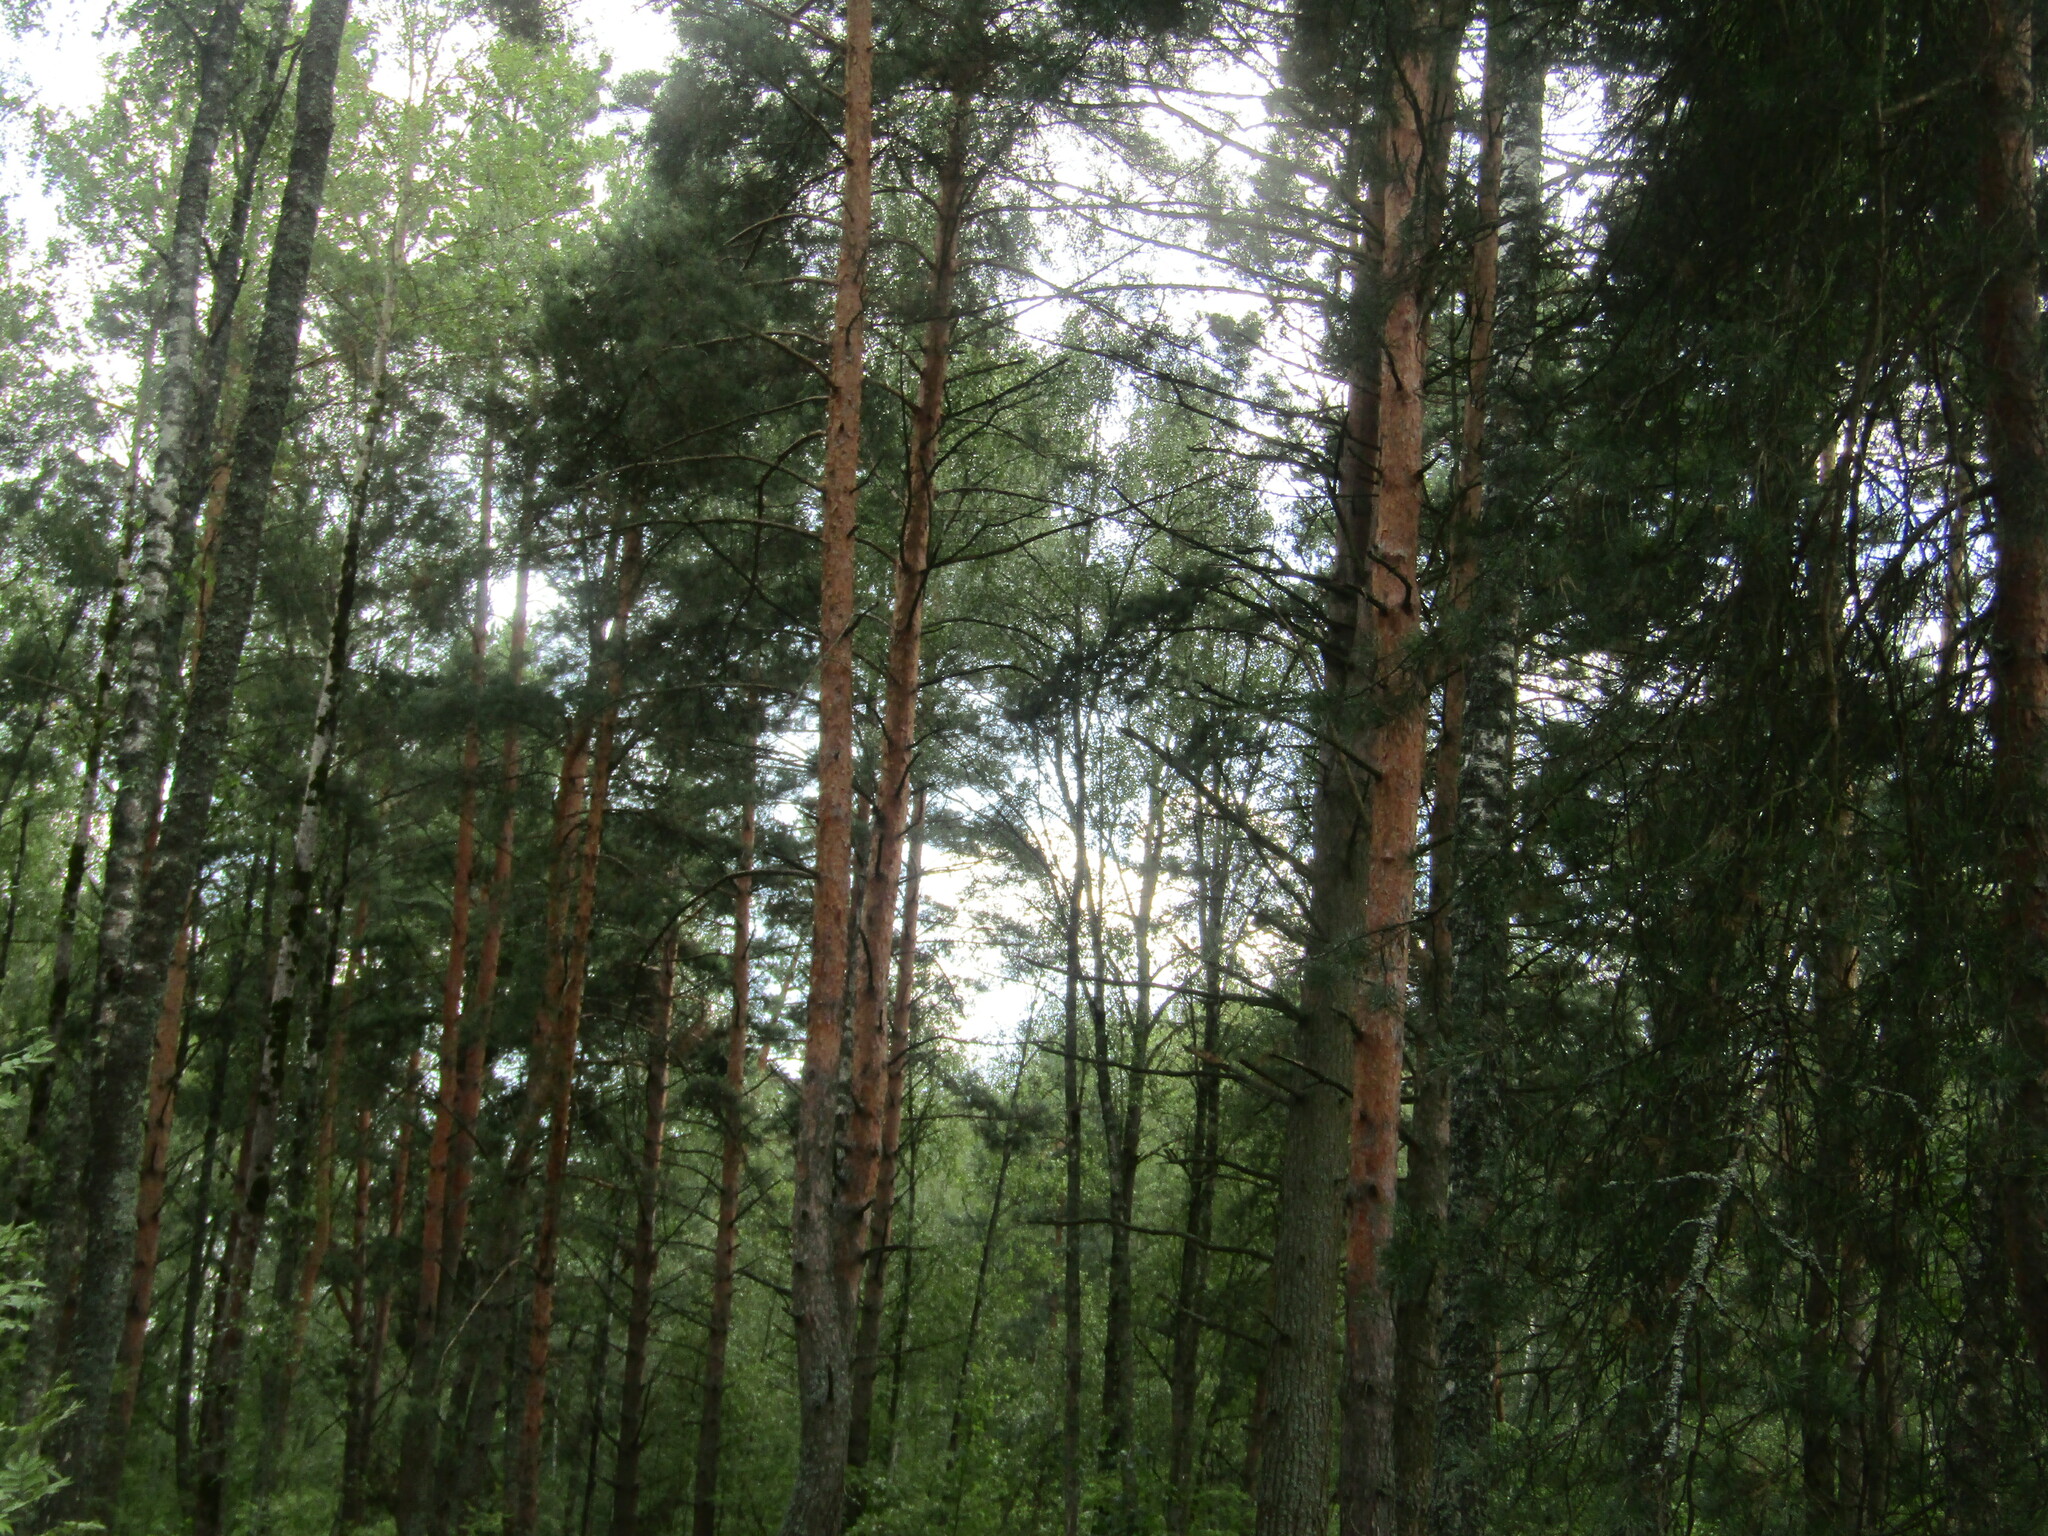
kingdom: Plantae
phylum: Tracheophyta
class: Pinopsida
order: Pinales
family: Pinaceae
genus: Pinus
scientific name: Pinus sylvestris
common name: Scots pine
